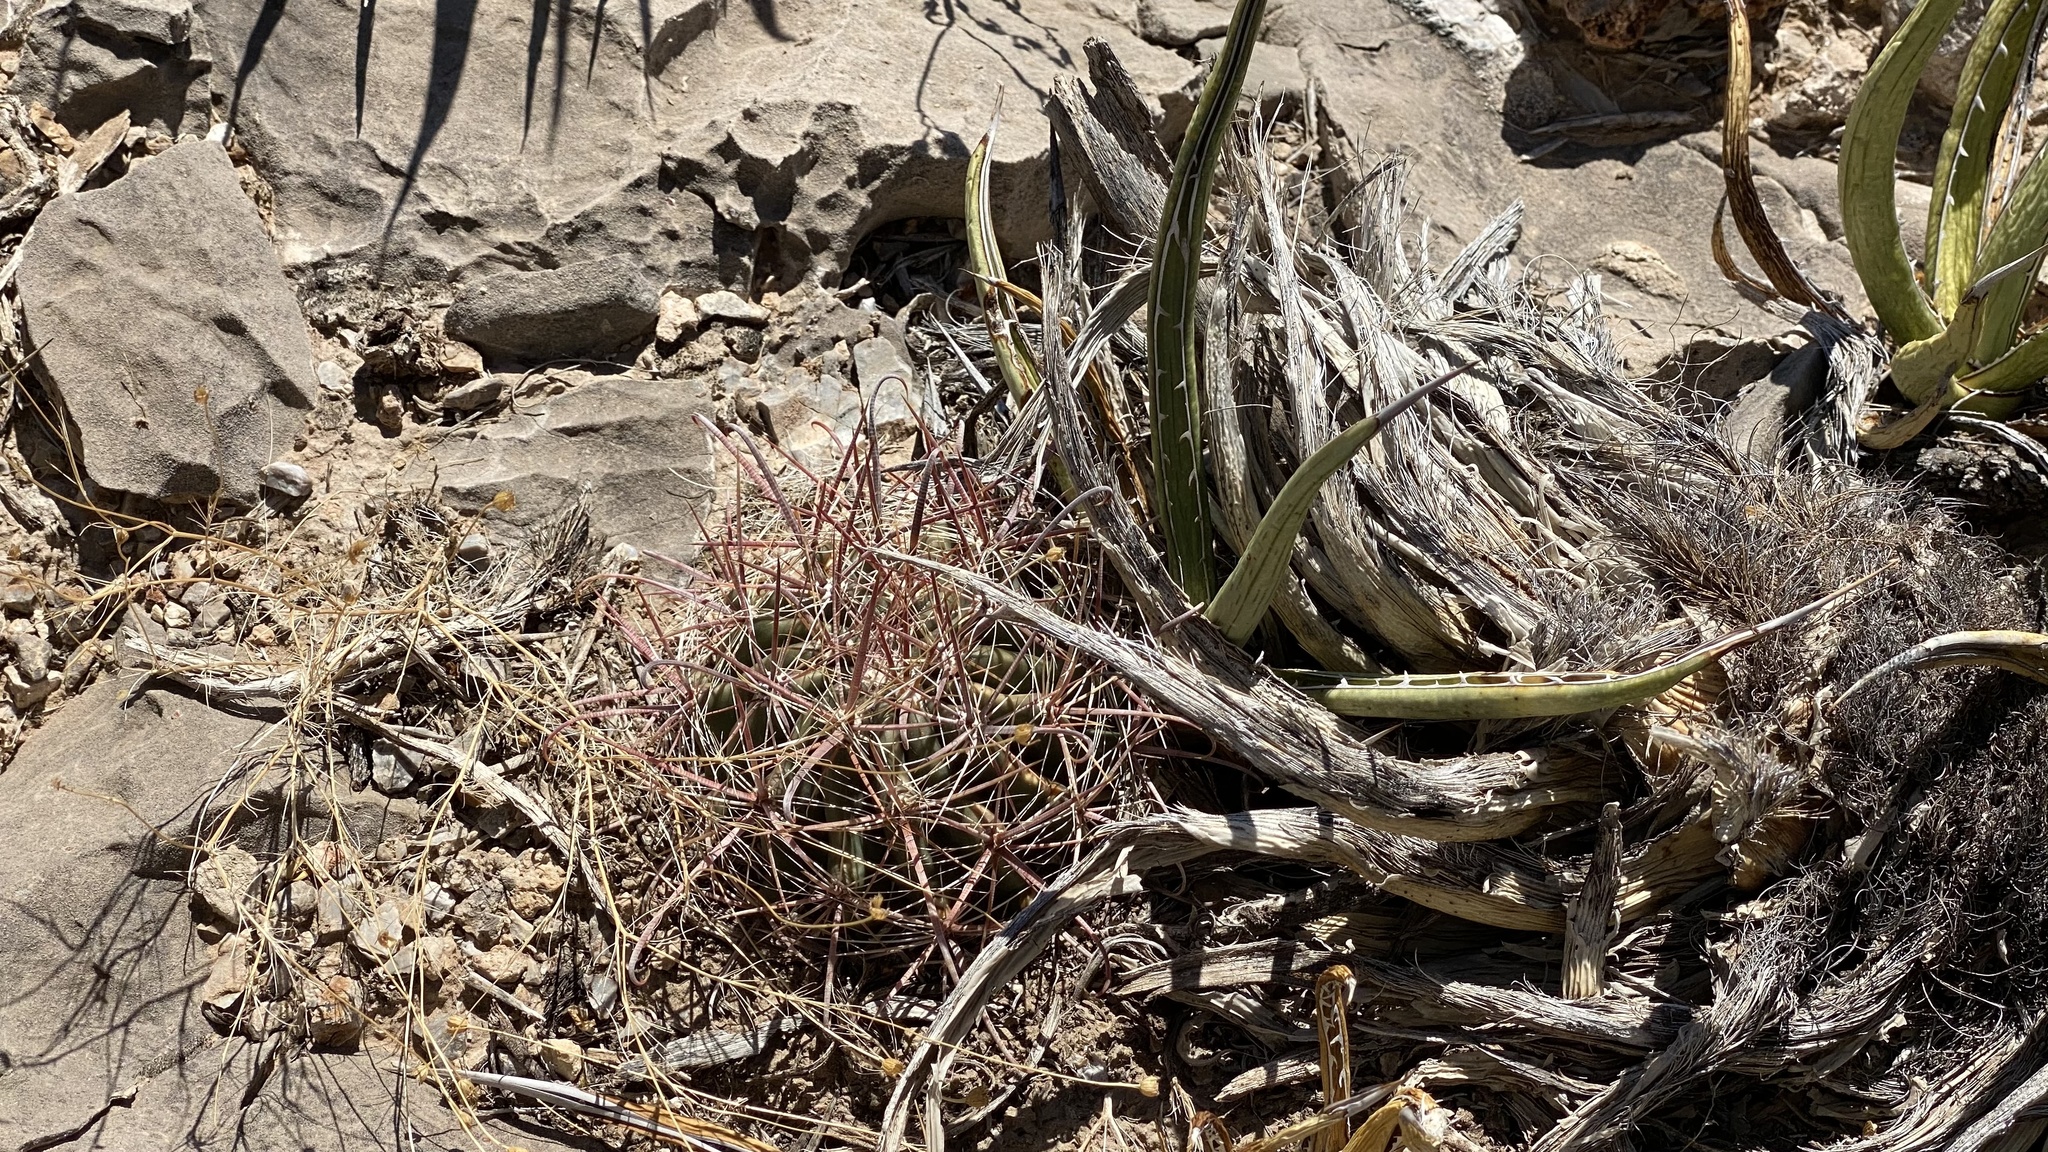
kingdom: Plantae
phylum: Tracheophyta
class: Magnoliopsida
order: Caryophyllales
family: Cactaceae
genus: Ferocactus
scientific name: Ferocactus wislizeni
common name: Candy barrel cactus
